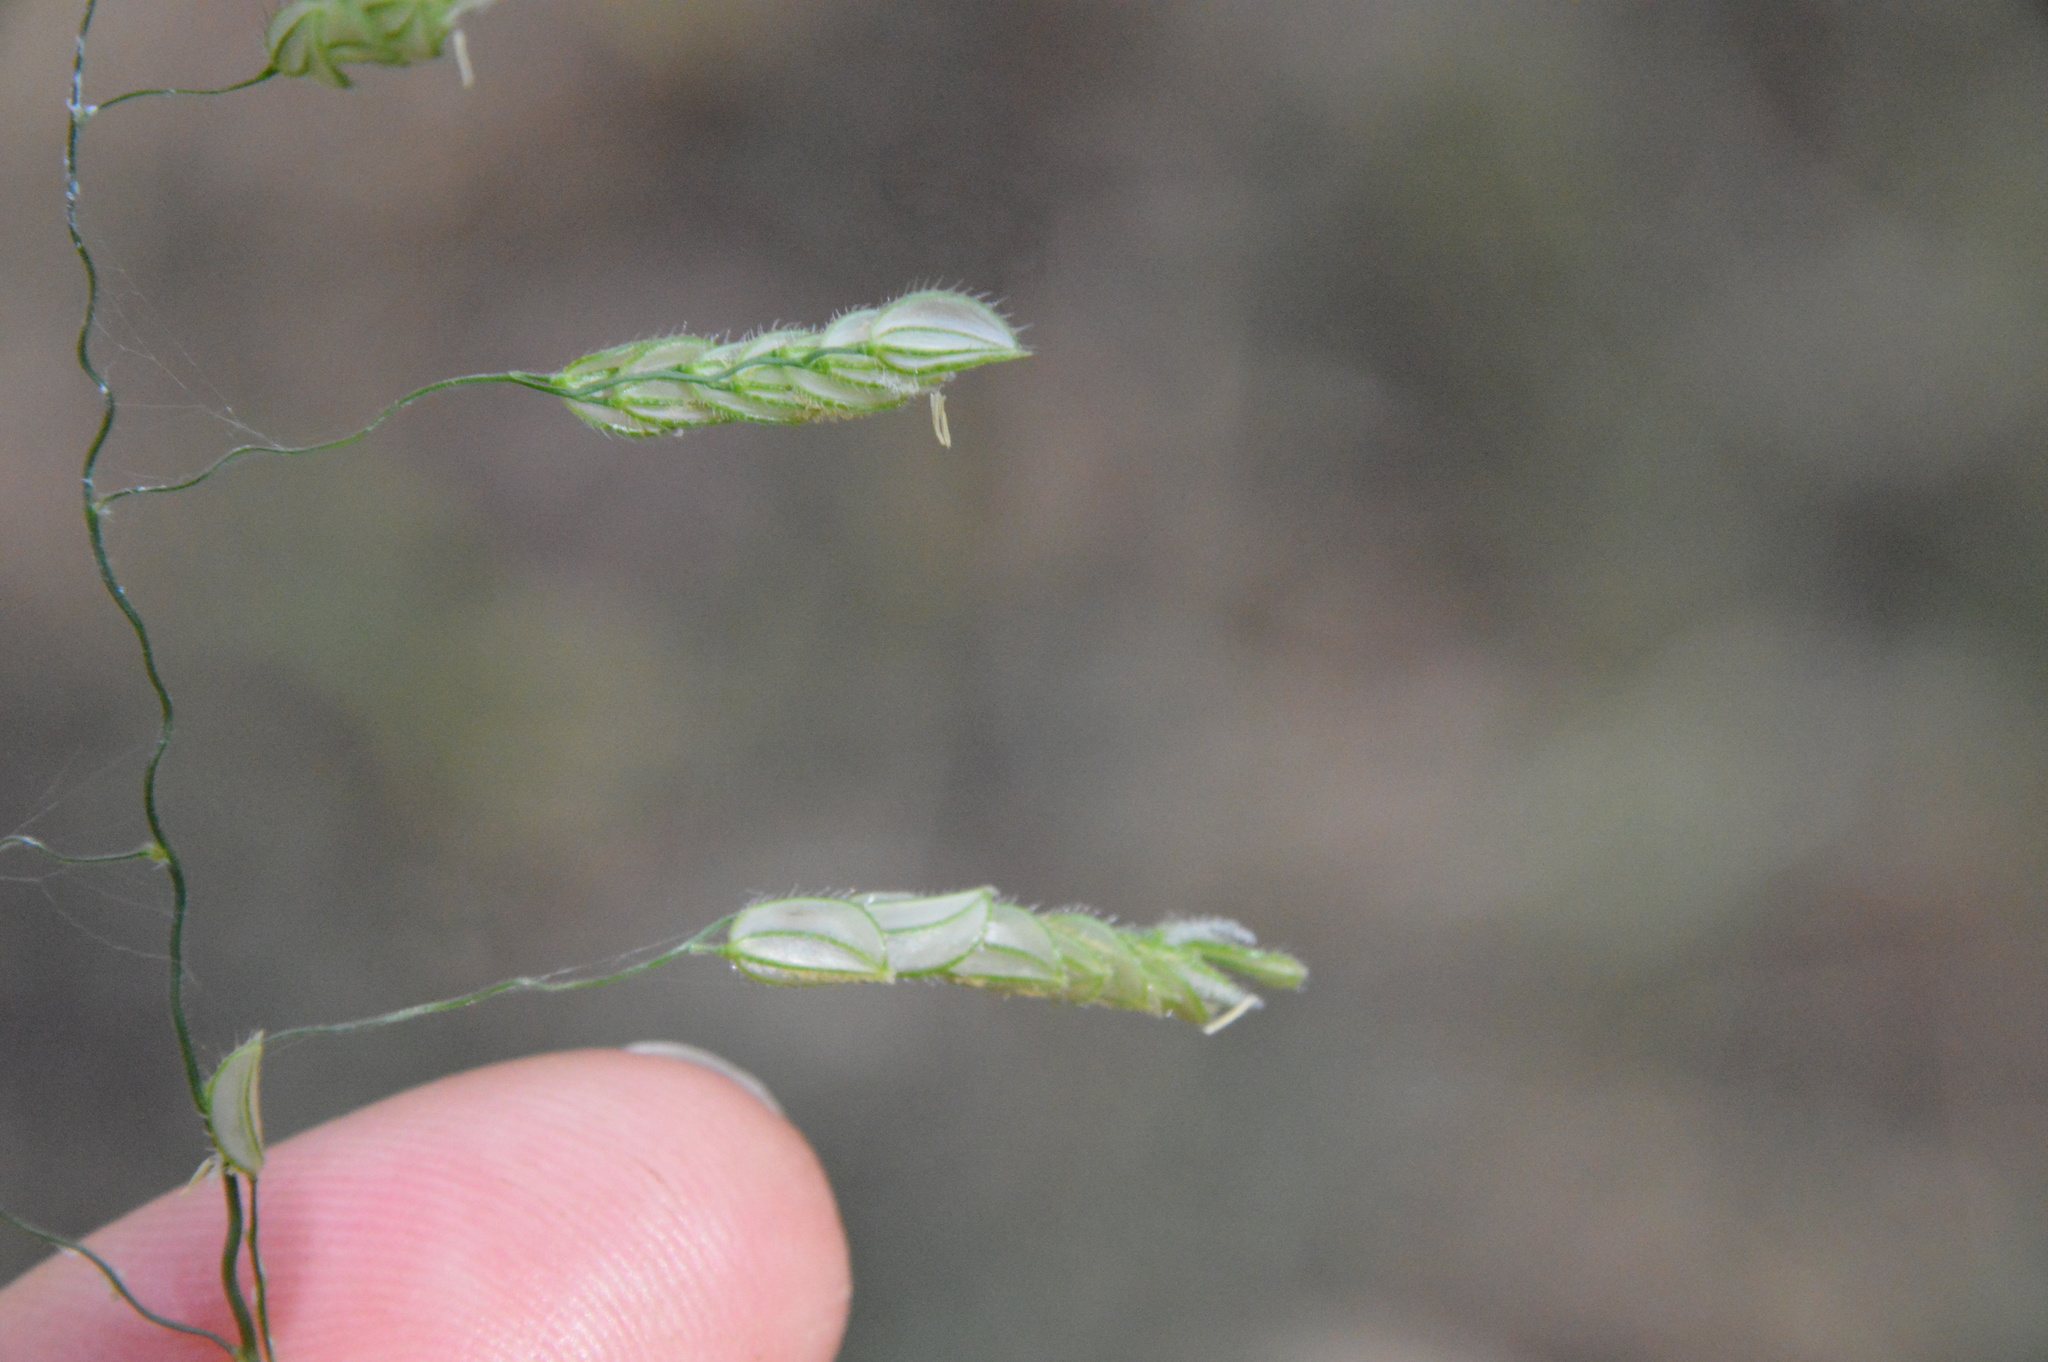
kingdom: Plantae
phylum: Tracheophyta
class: Liliopsida
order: Poales
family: Poaceae
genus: Leersia
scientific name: Leersia lenticularis
